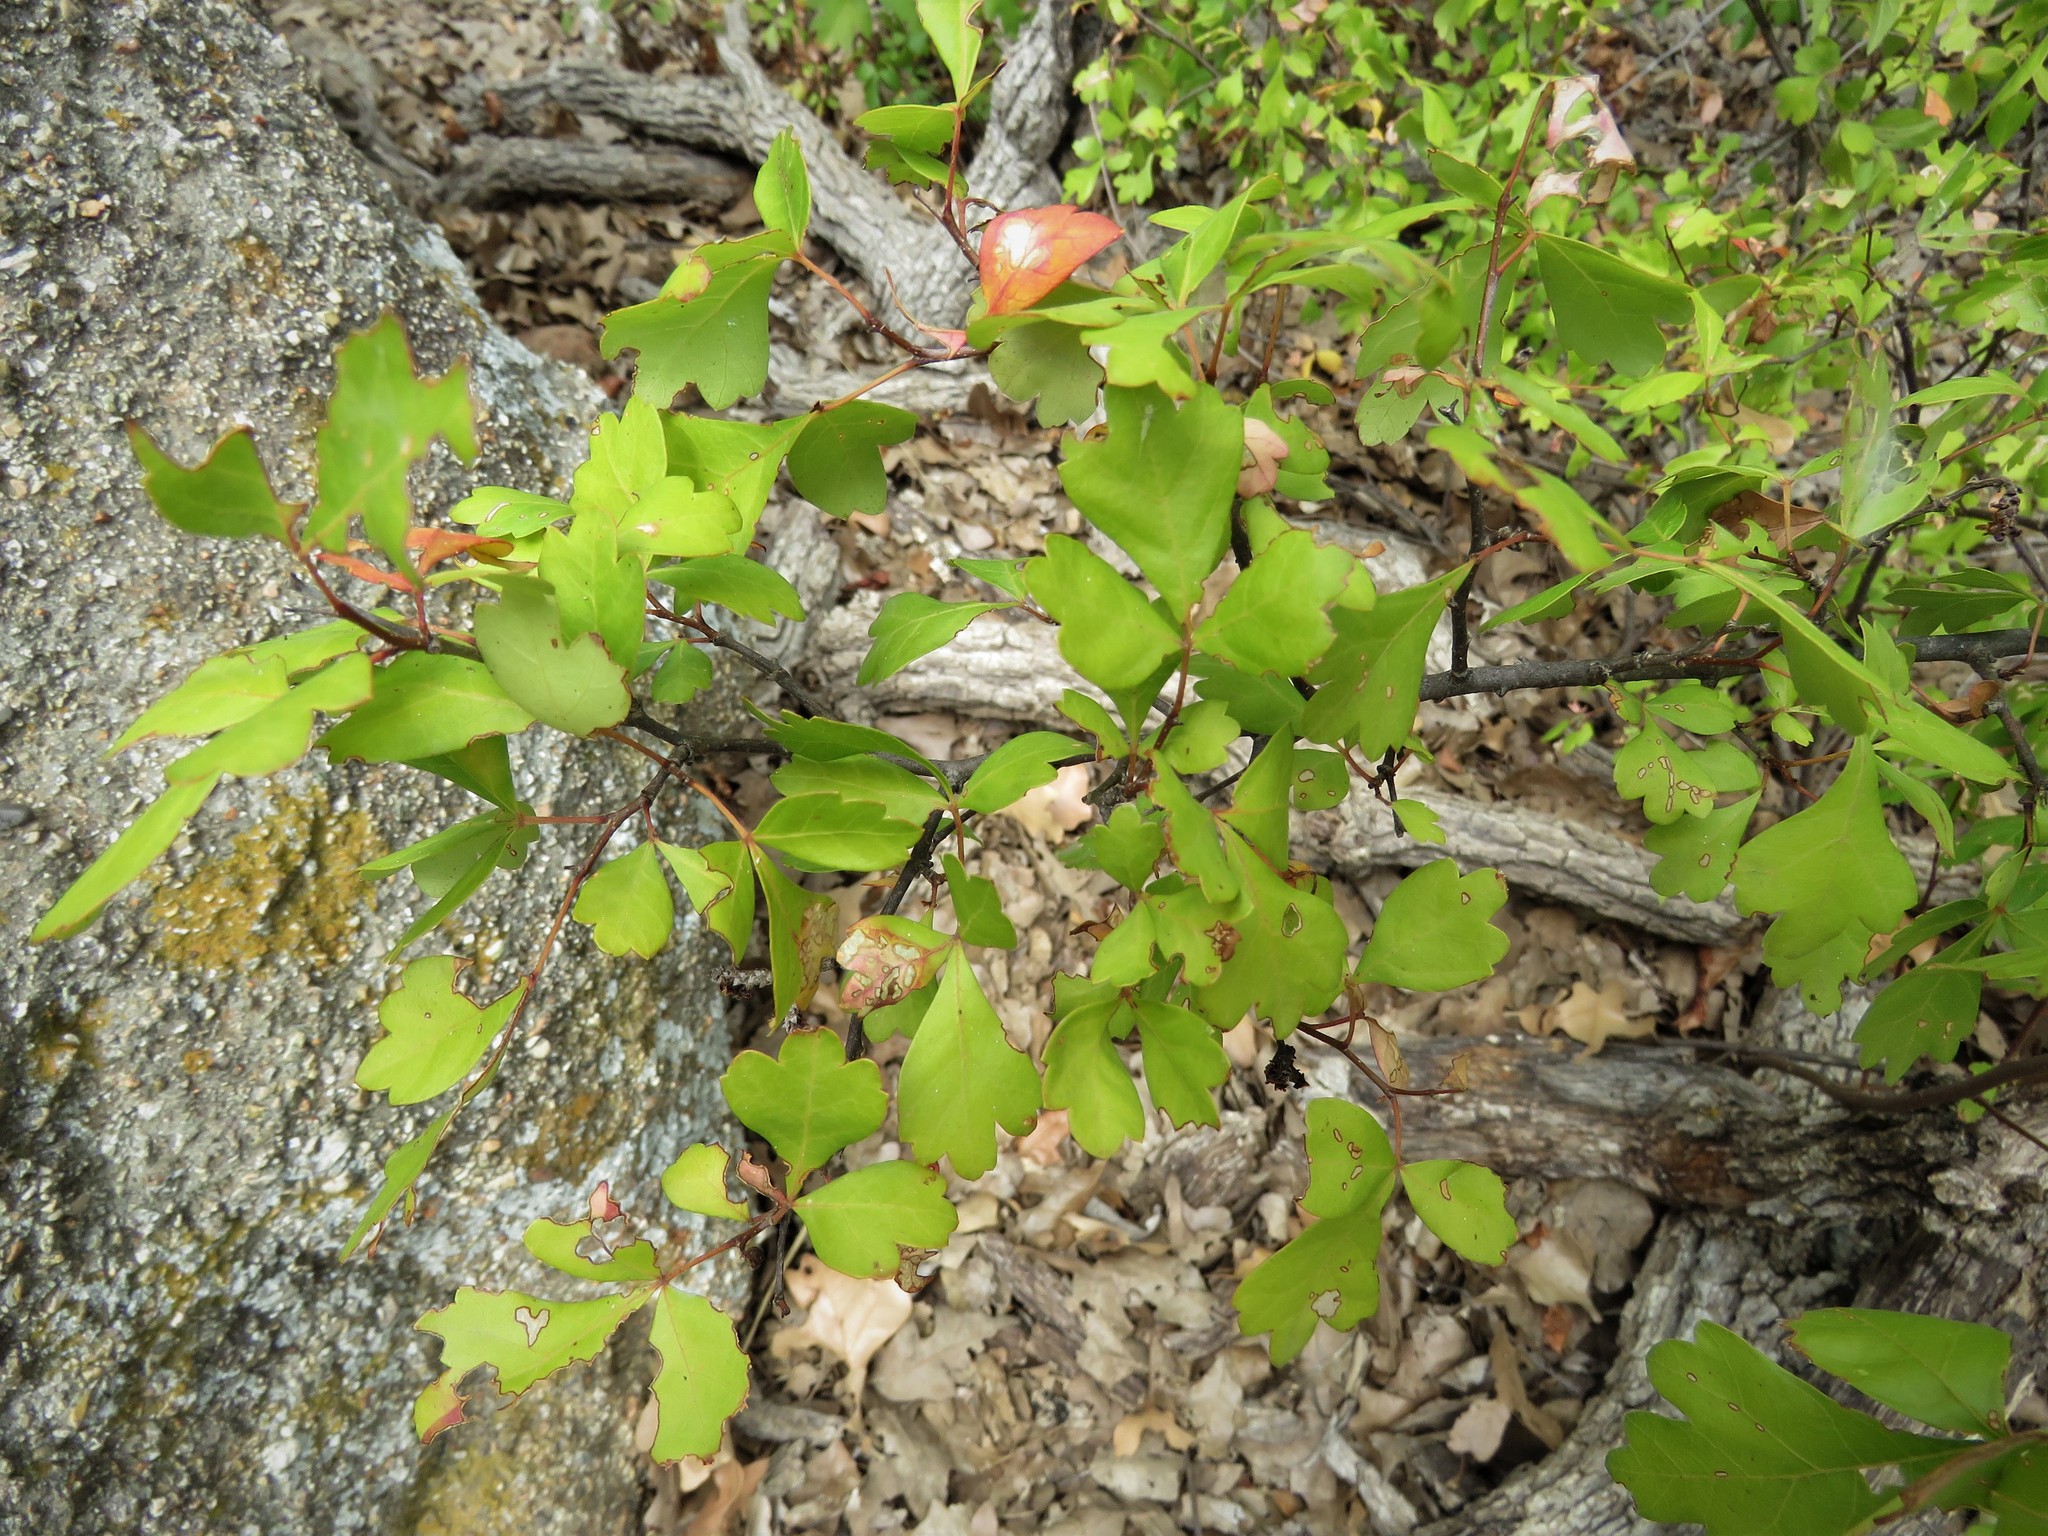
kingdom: Plantae
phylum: Tracheophyta
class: Magnoliopsida
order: Sapindales
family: Anacardiaceae
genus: Rhus
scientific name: Rhus aromatica
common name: Aromatic sumac
